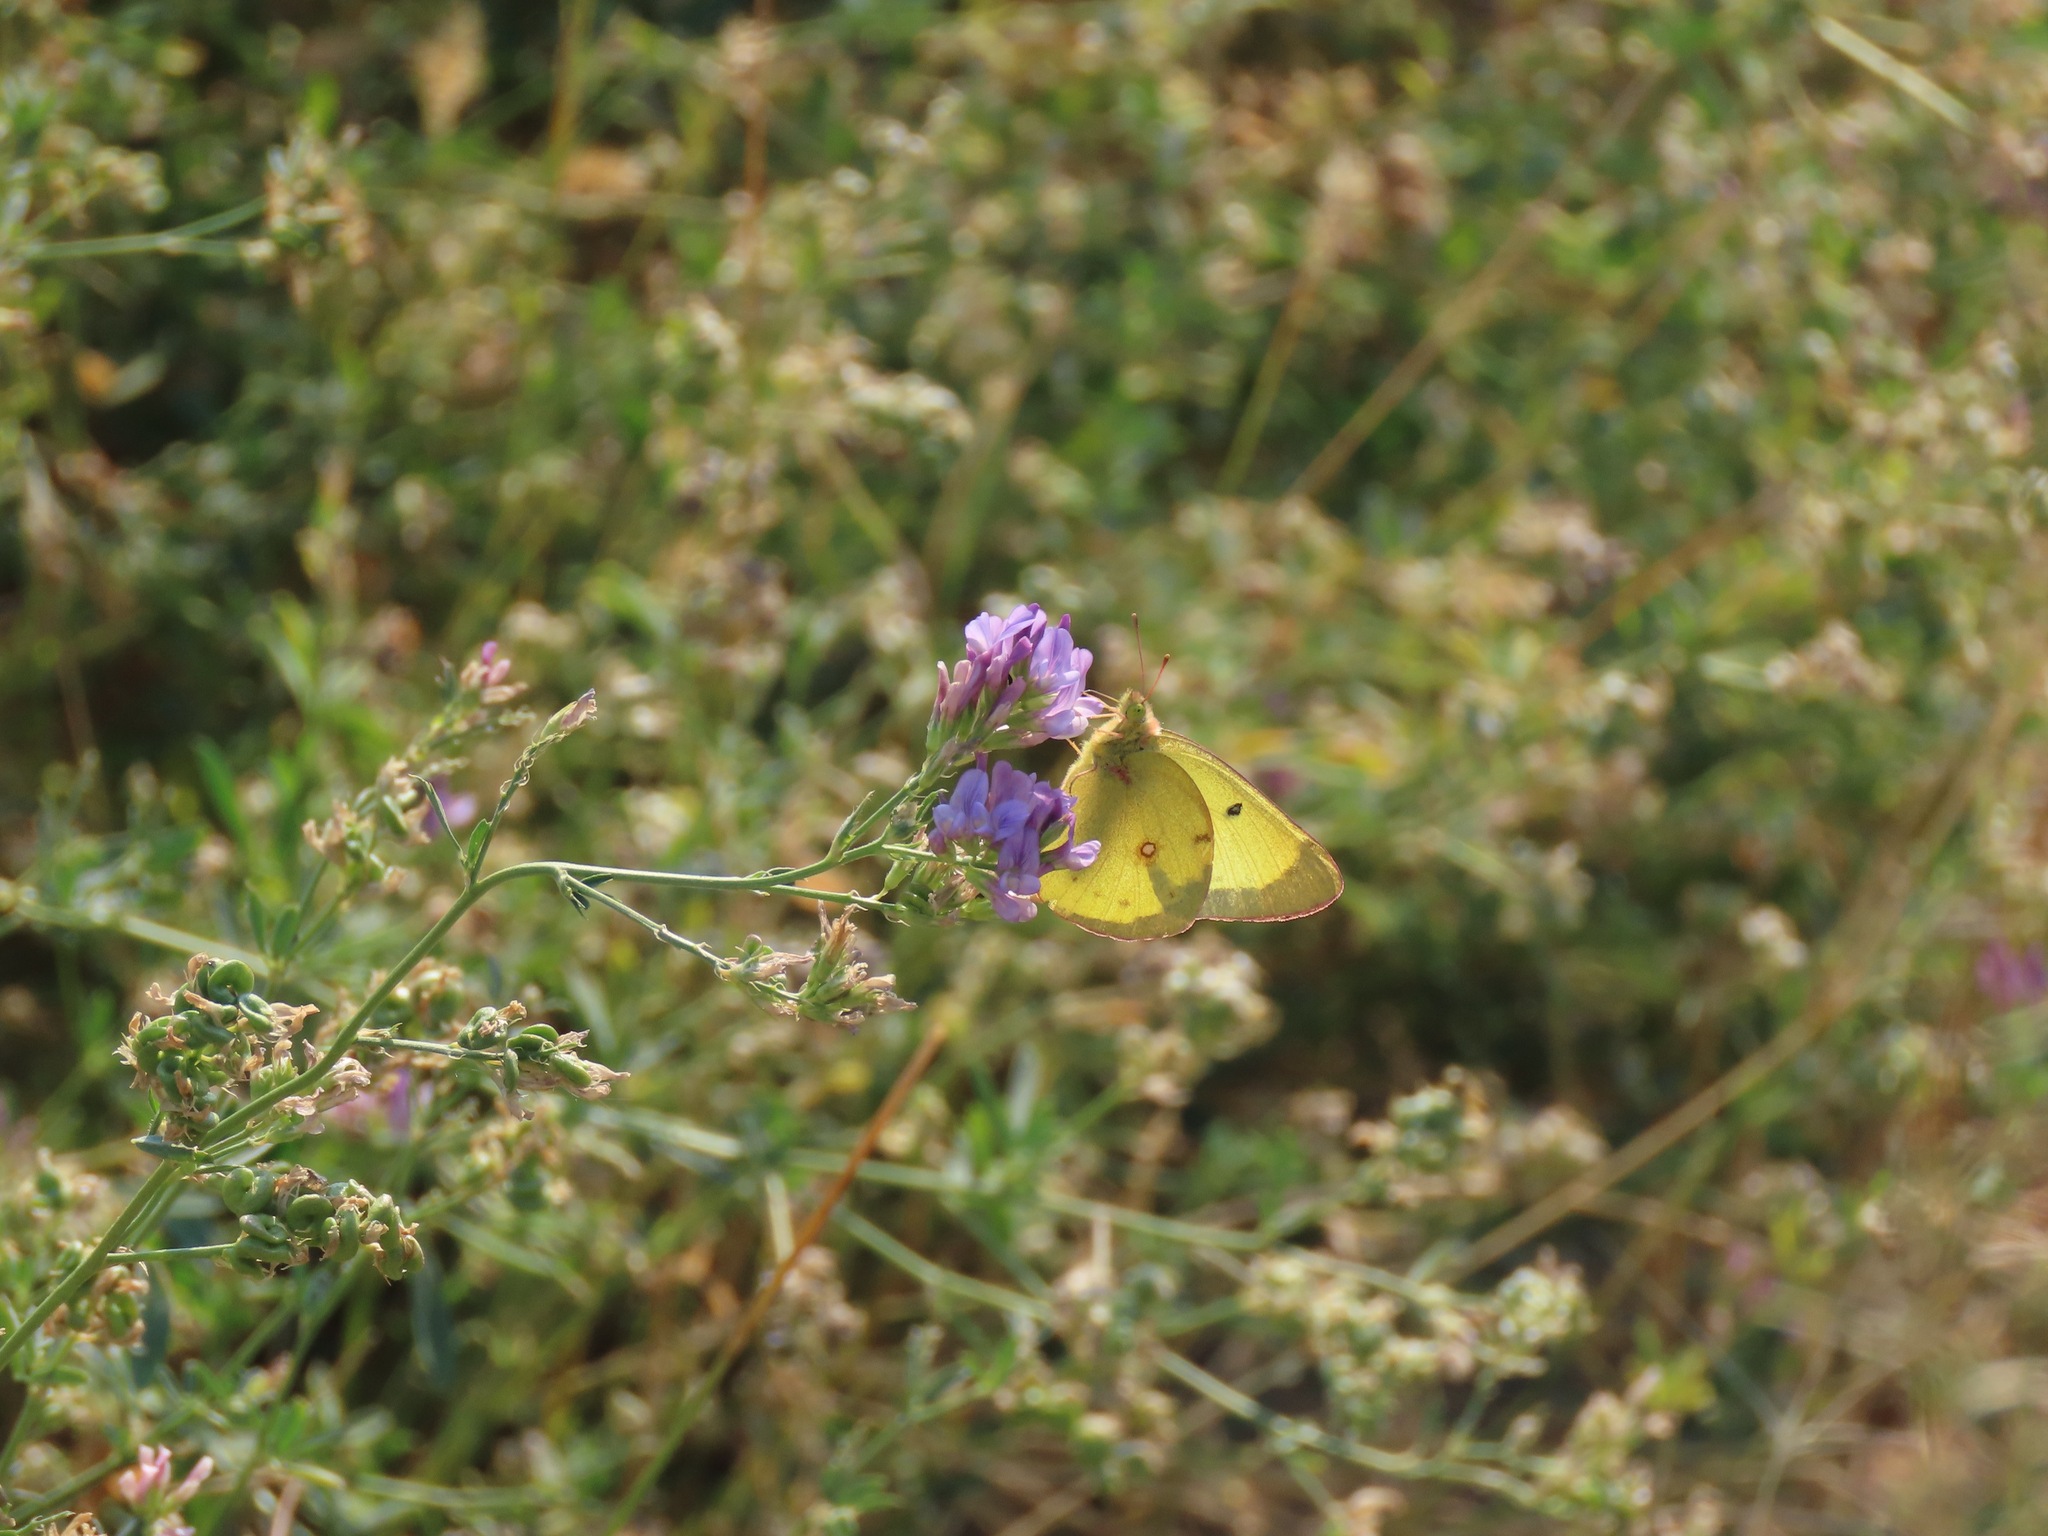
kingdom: Animalia
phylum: Arthropoda
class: Insecta
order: Lepidoptera
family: Pieridae
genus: Colias
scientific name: Colias philodice
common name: Clouded sulphur
